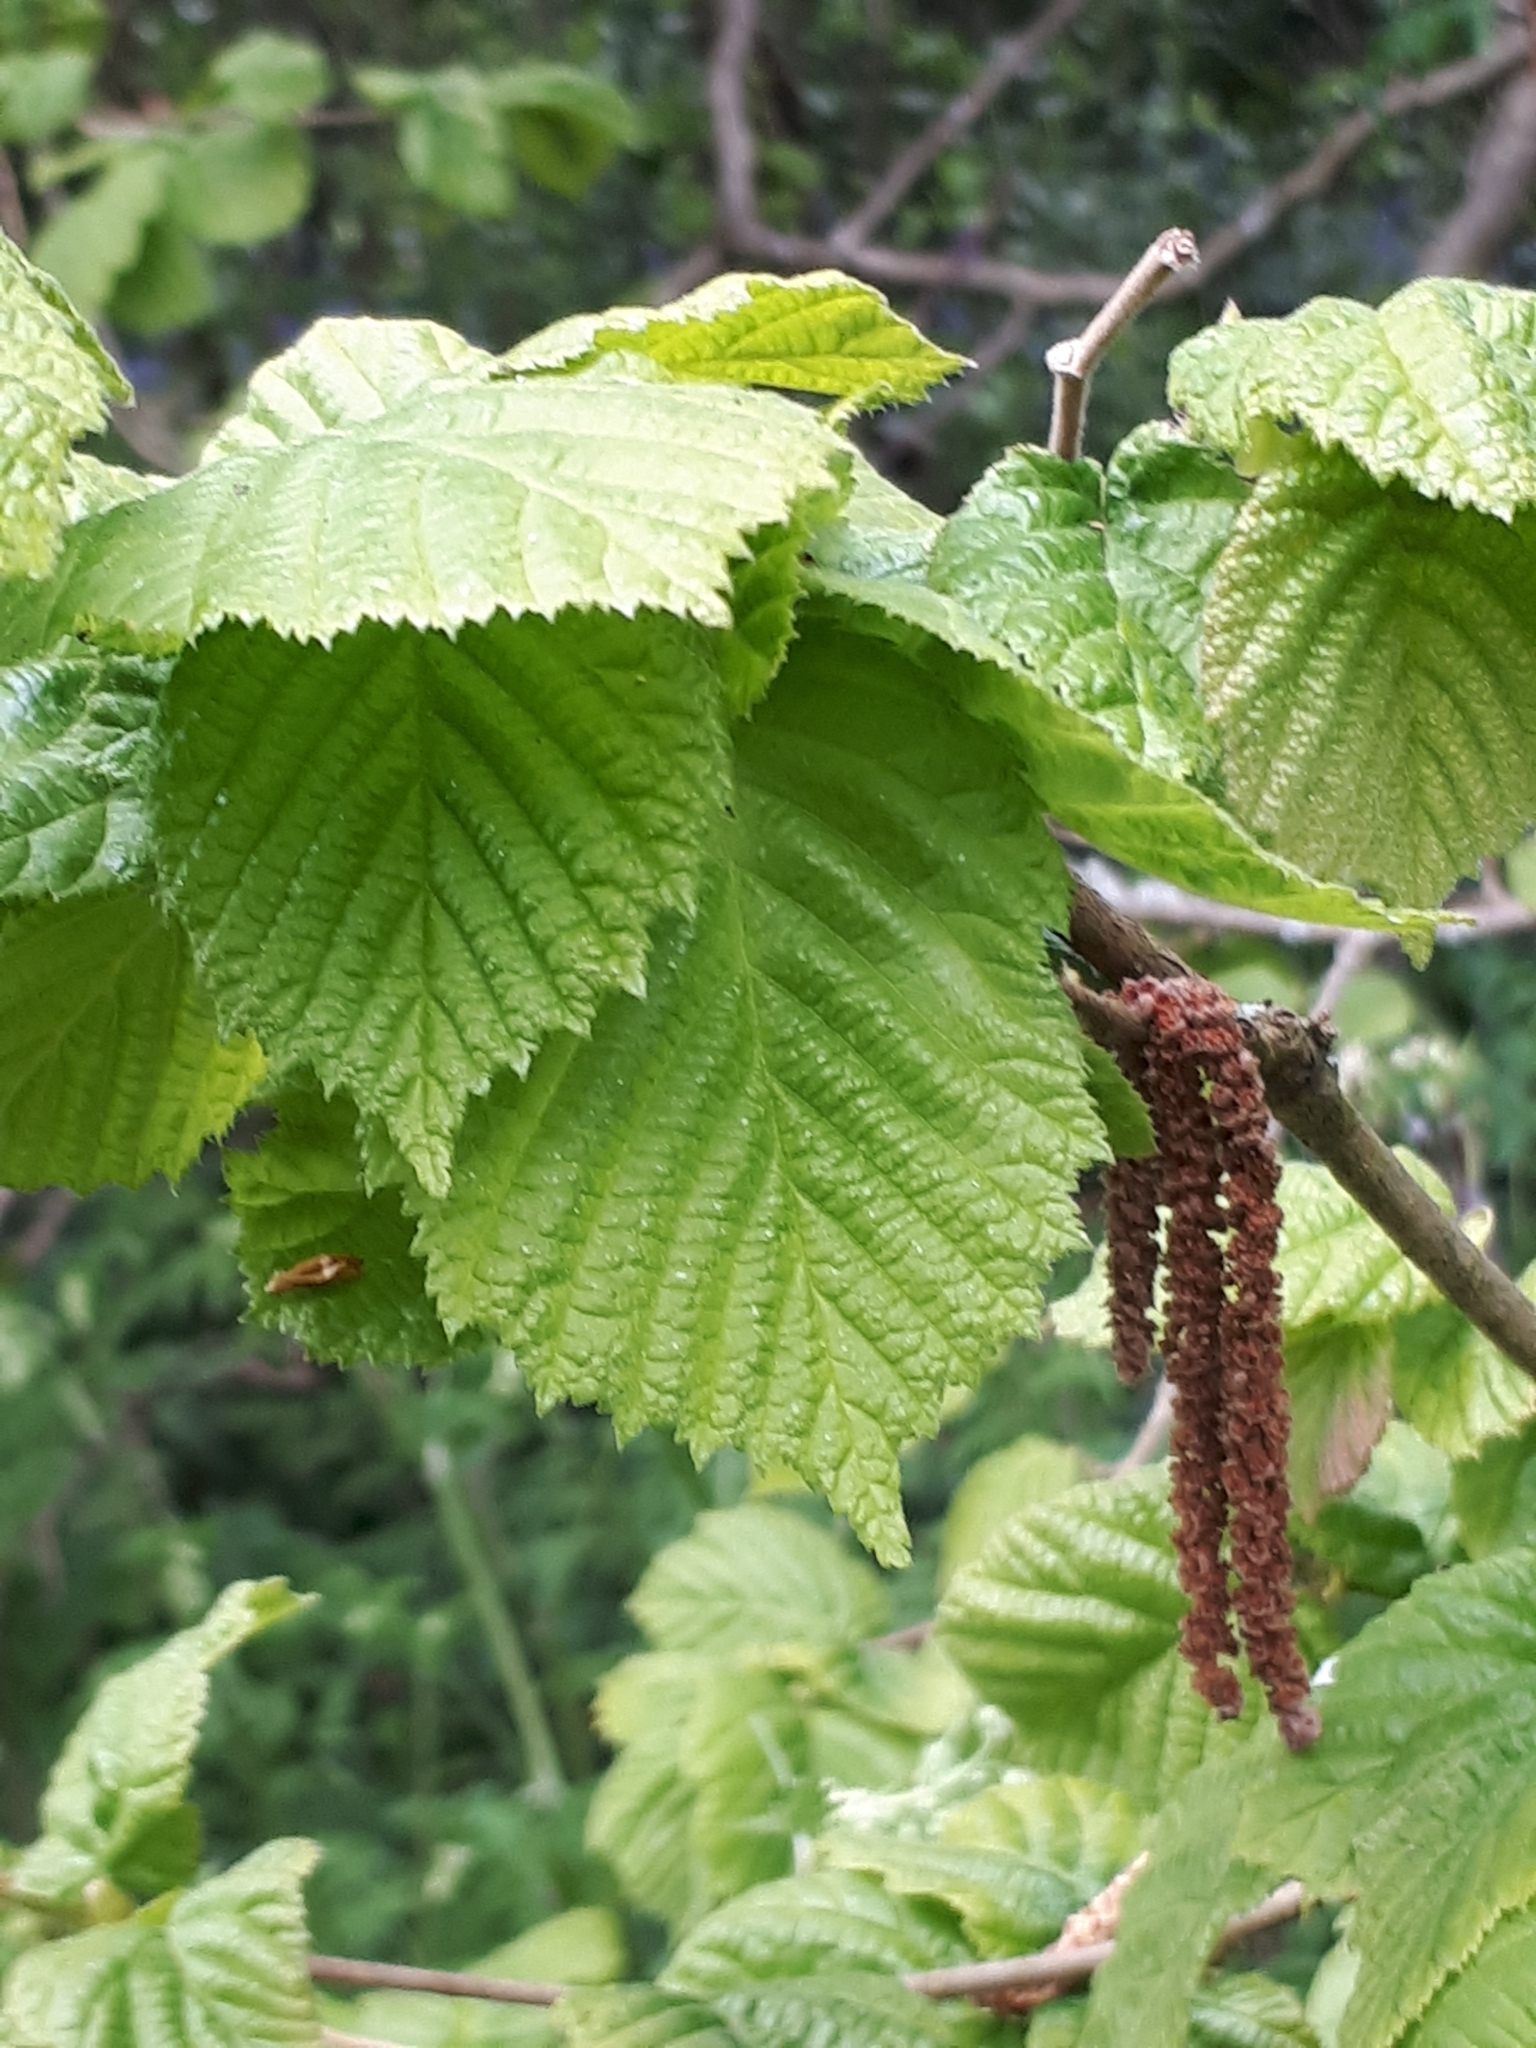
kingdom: Plantae
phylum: Tracheophyta
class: Magnoliopsida
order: Fagales
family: Betulaceae
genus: Corylus
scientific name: Corylus avellana
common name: European hazel
